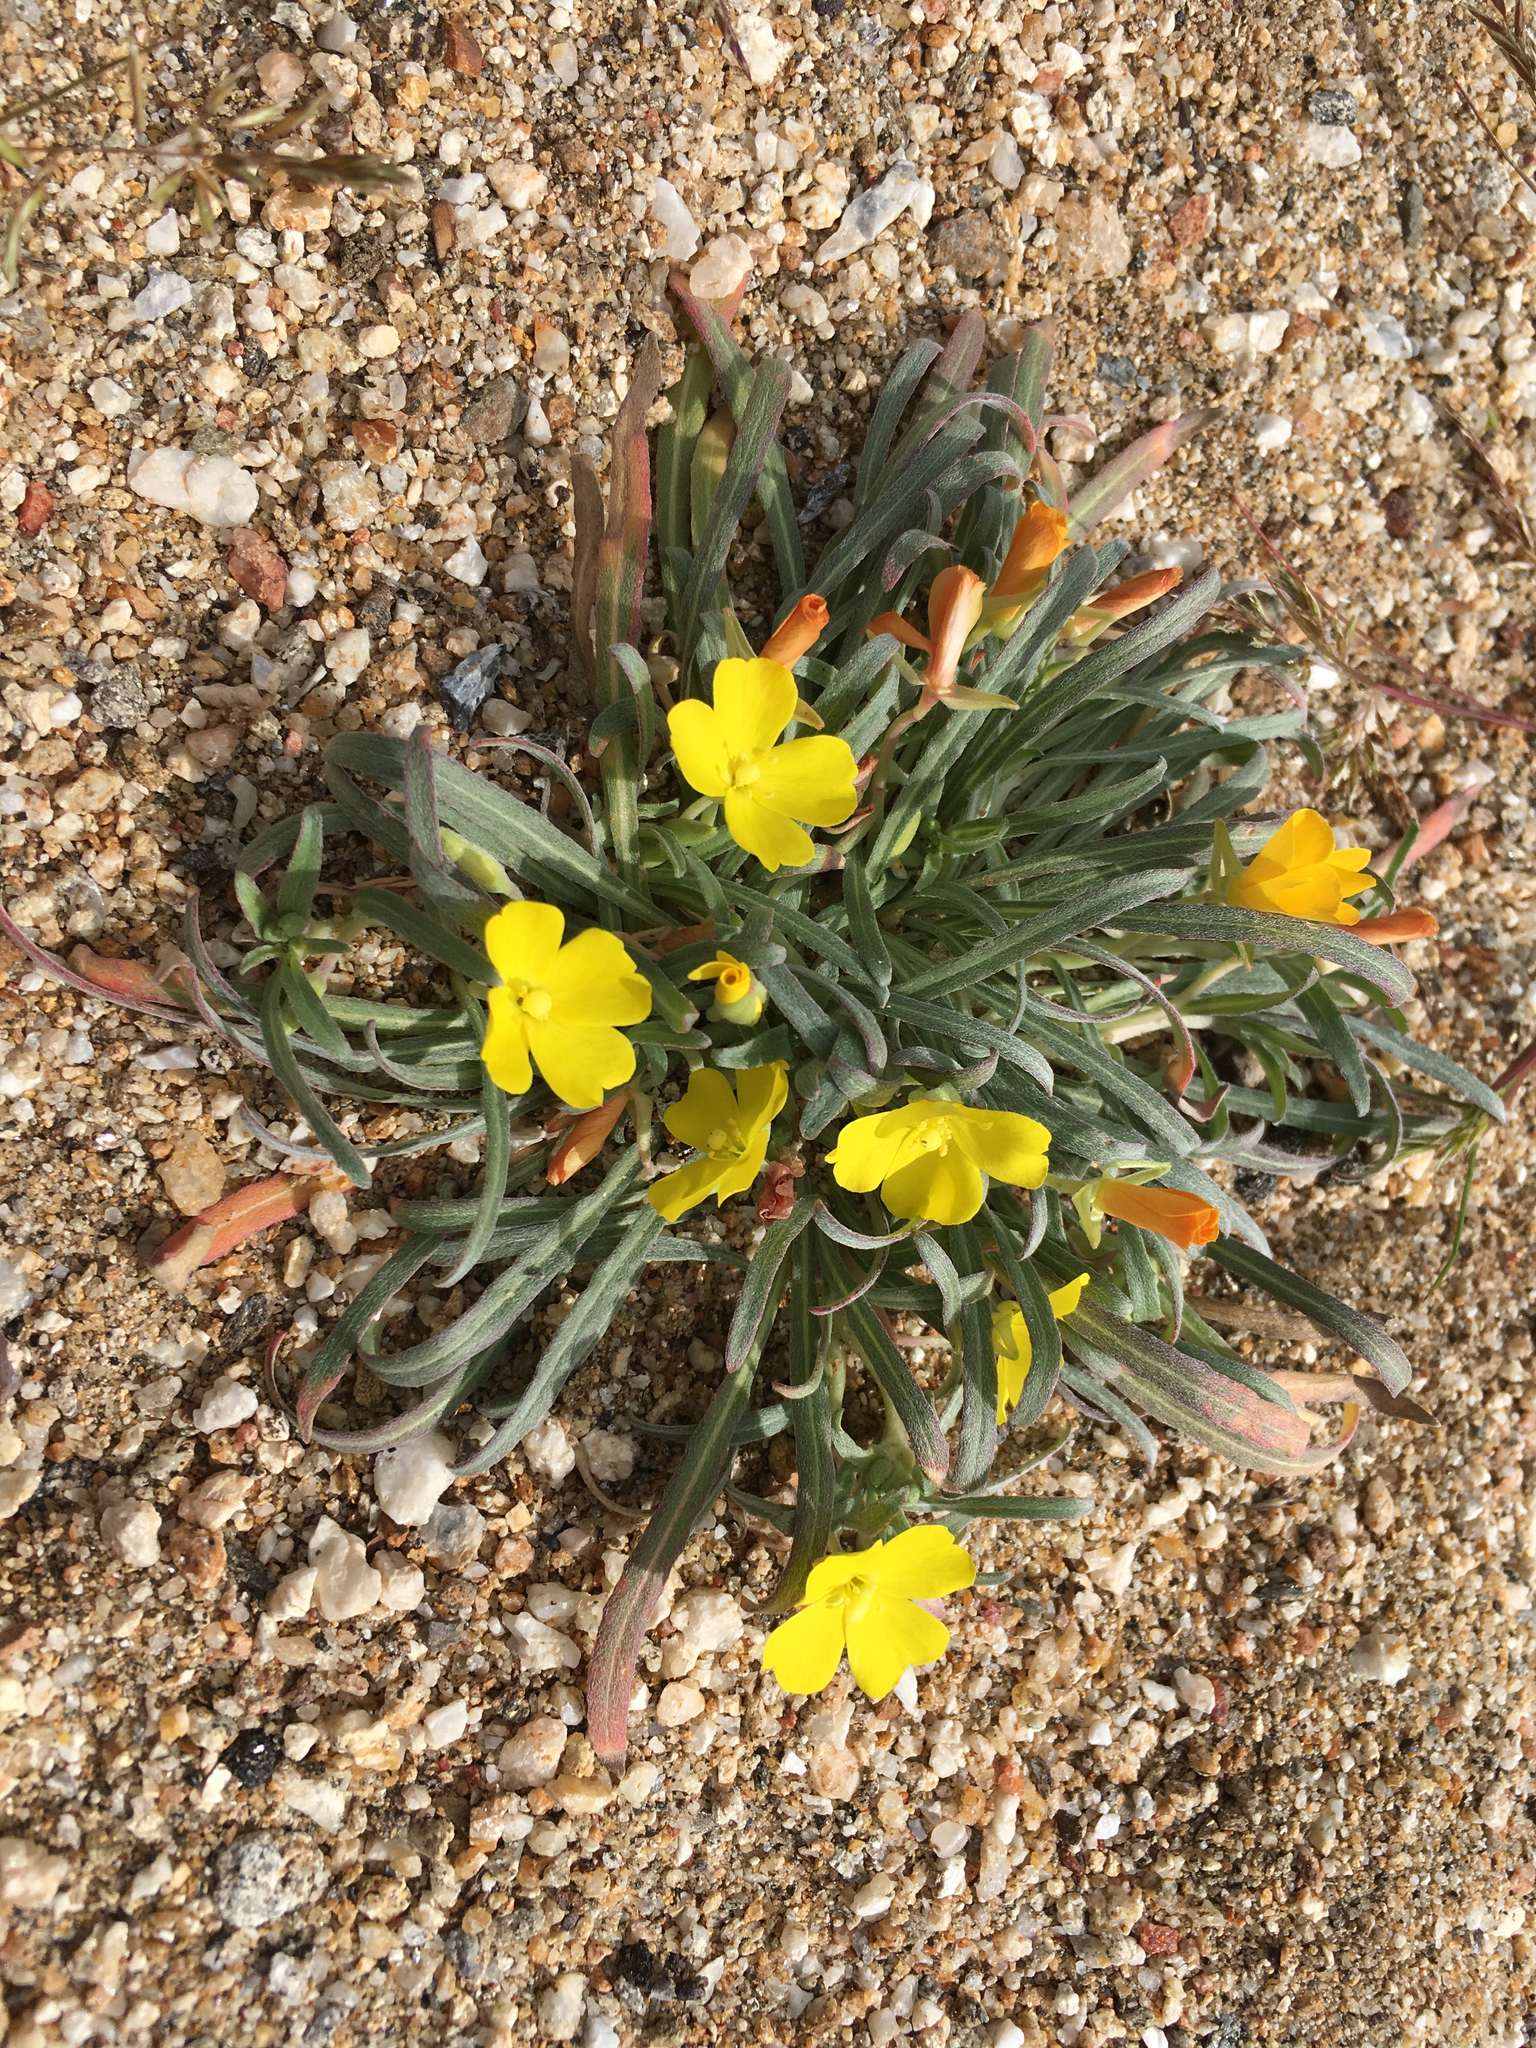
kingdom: Plantae
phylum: Tracheophyta
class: Magnoliopsida
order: Myrtales
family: Onagraceae
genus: Camissoniopsis
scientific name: Camissoniopsis pallida
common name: Paleyellow suncup
